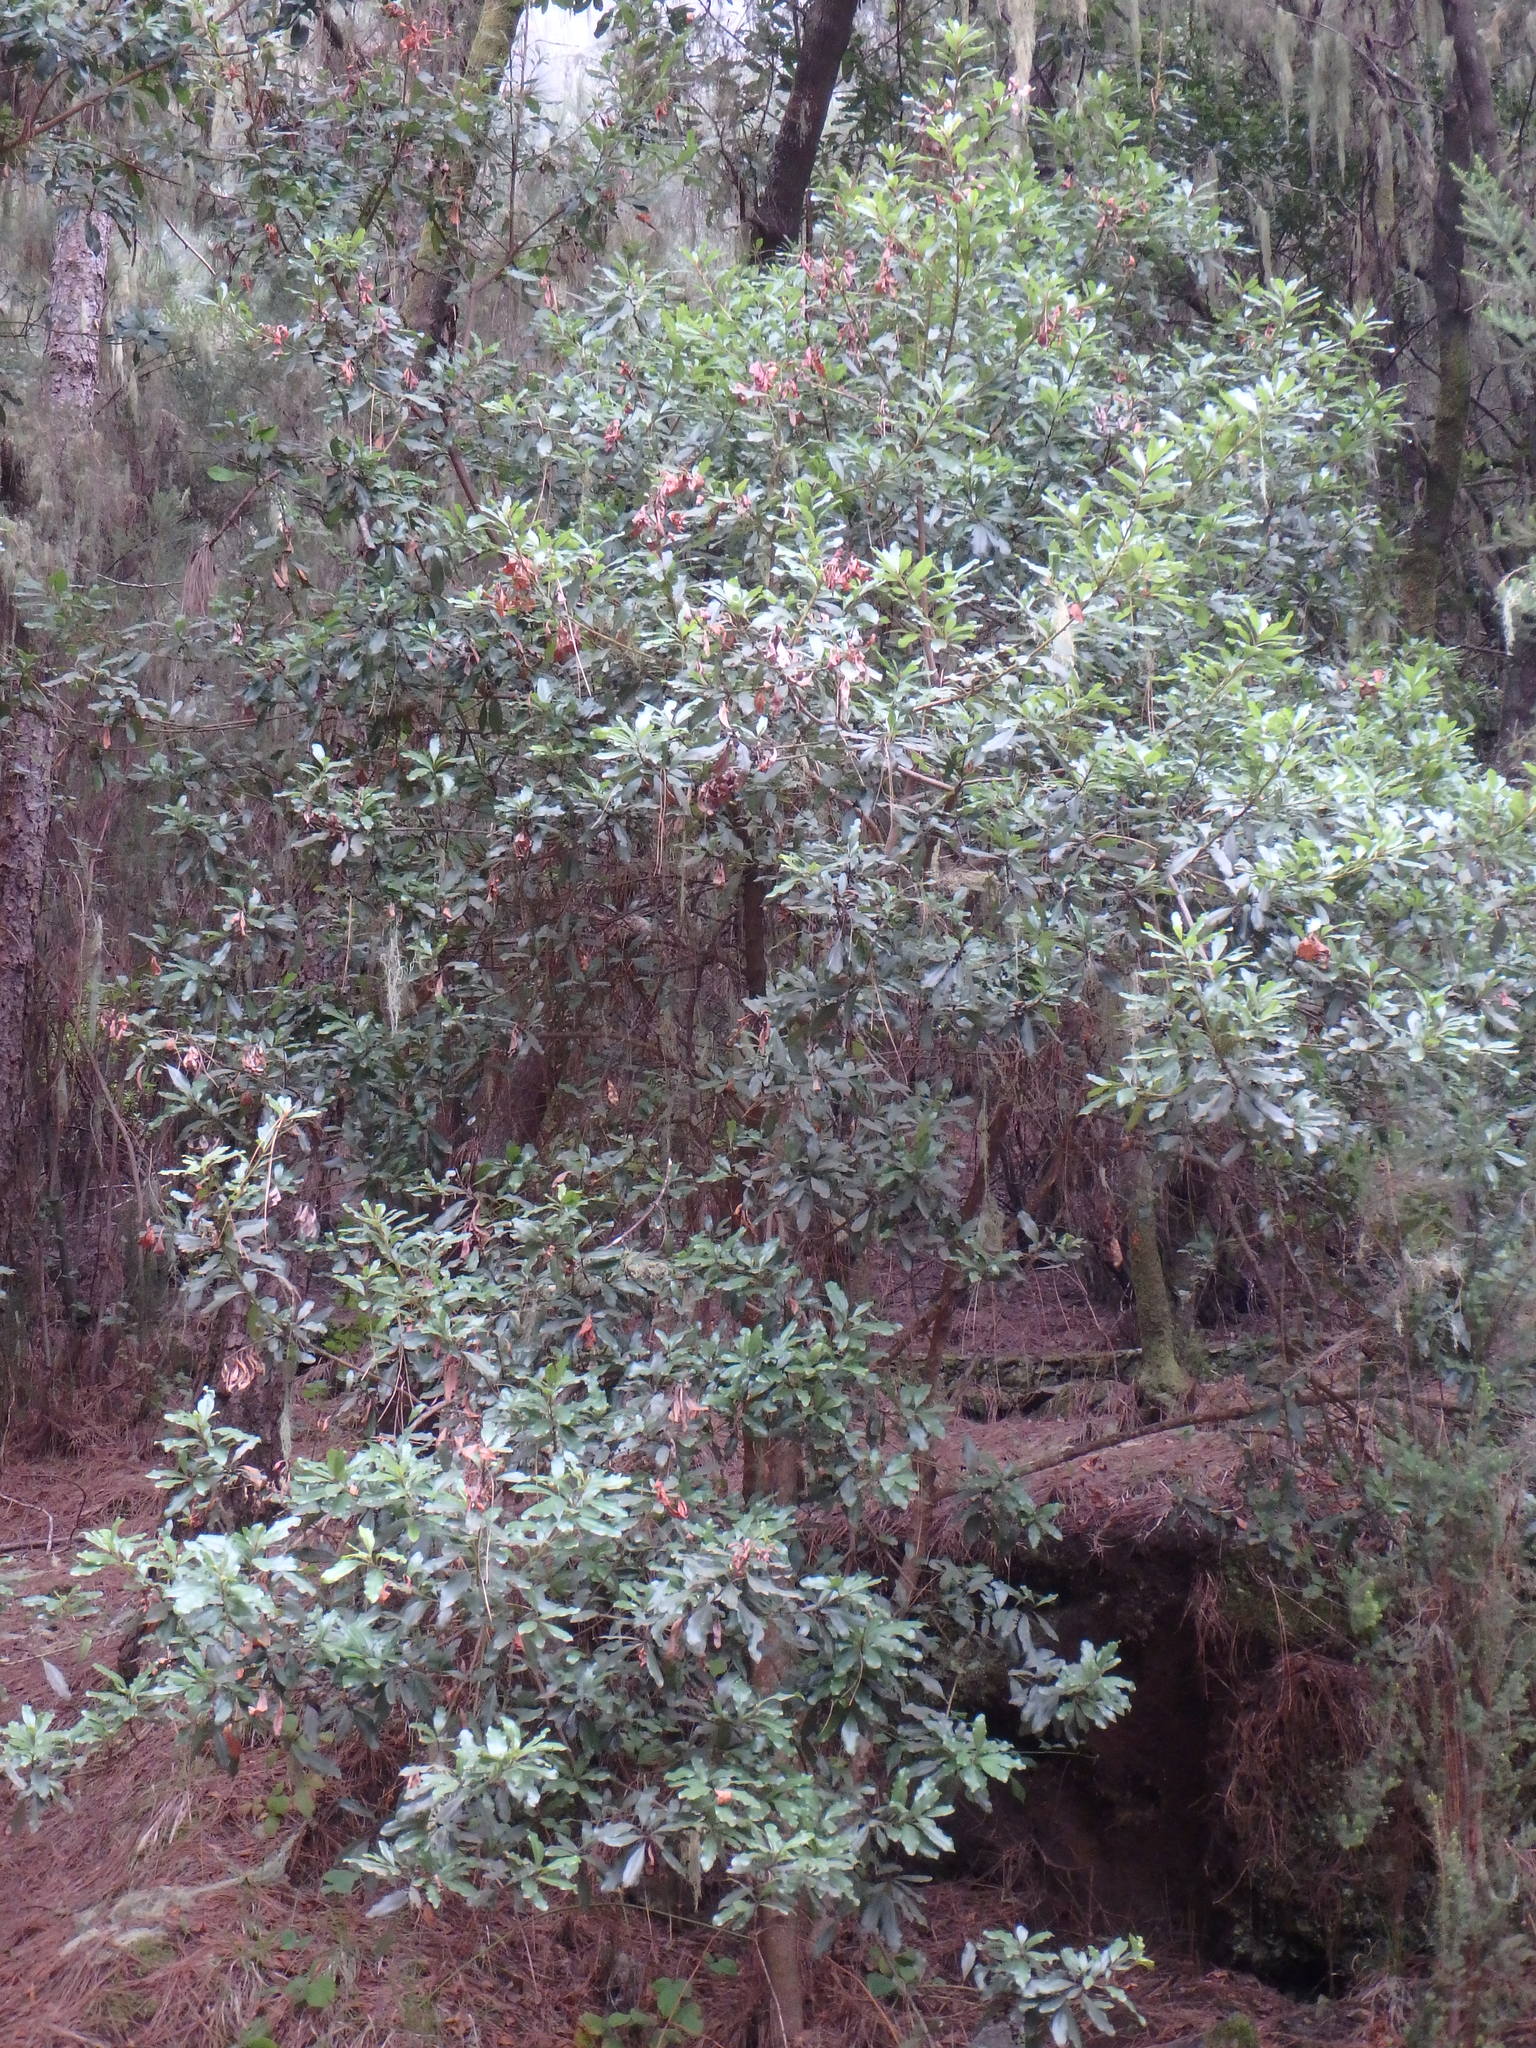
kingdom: Plantae
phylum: Tracheophyta
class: Magnoliopsida
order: Fagales
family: Myricaceae
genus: Morella
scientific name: Morella faya
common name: Firetree
